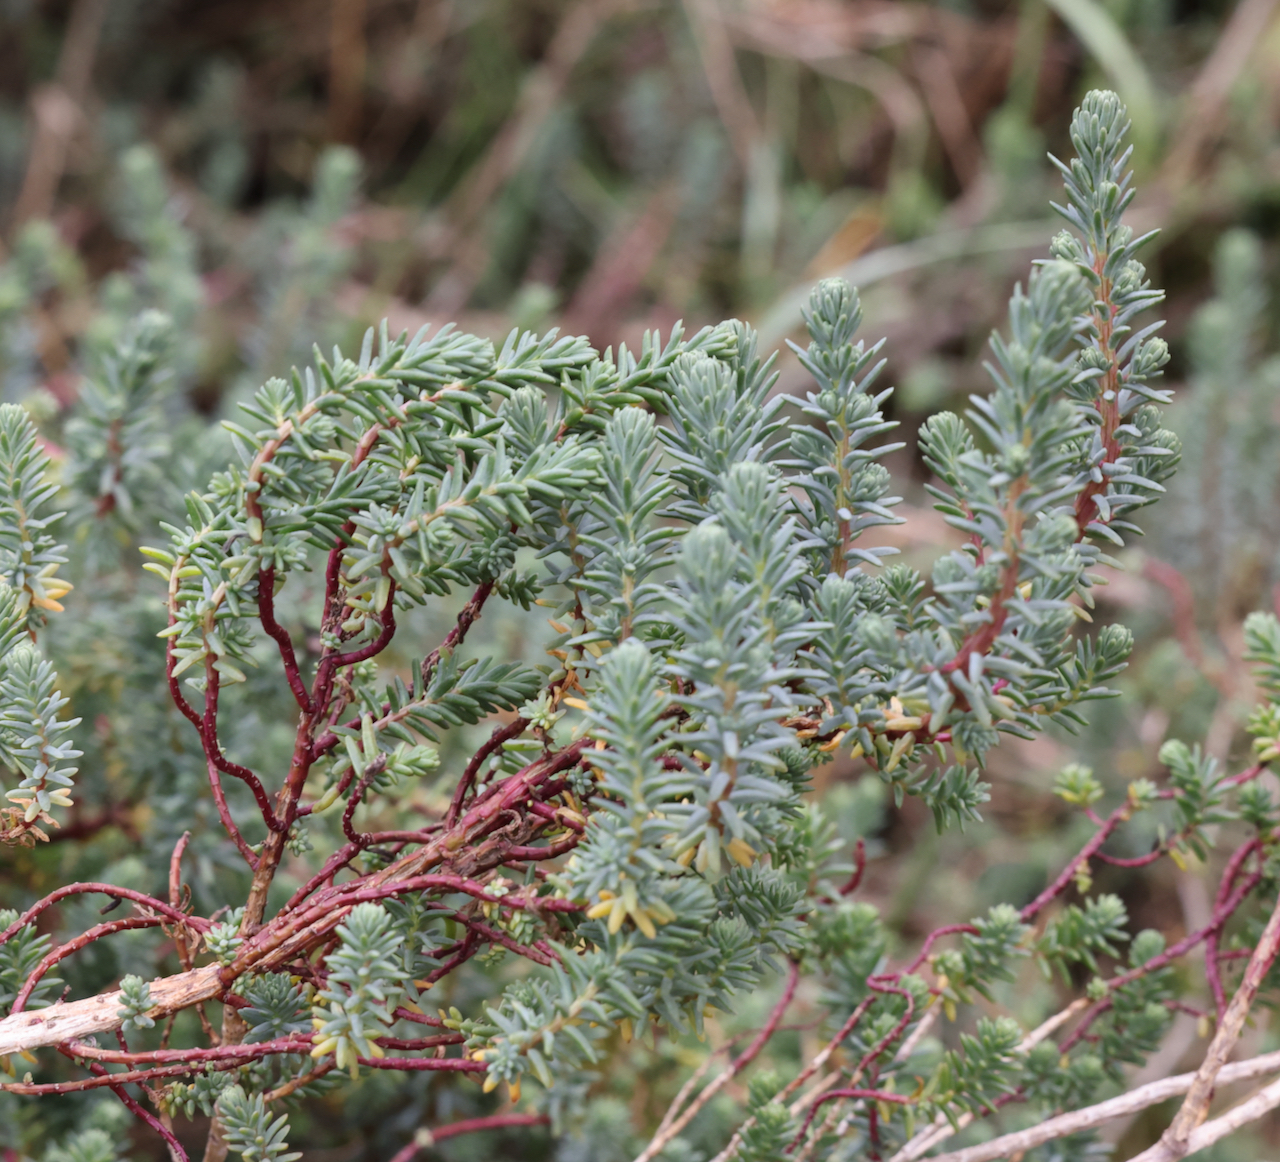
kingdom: Plantae
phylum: Tracheophyta
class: Magnoliopsida
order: Caryophyllales
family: Amaranthaceae
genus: Suaeda
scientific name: Suaeda vera
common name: Shrubby sea-blite
